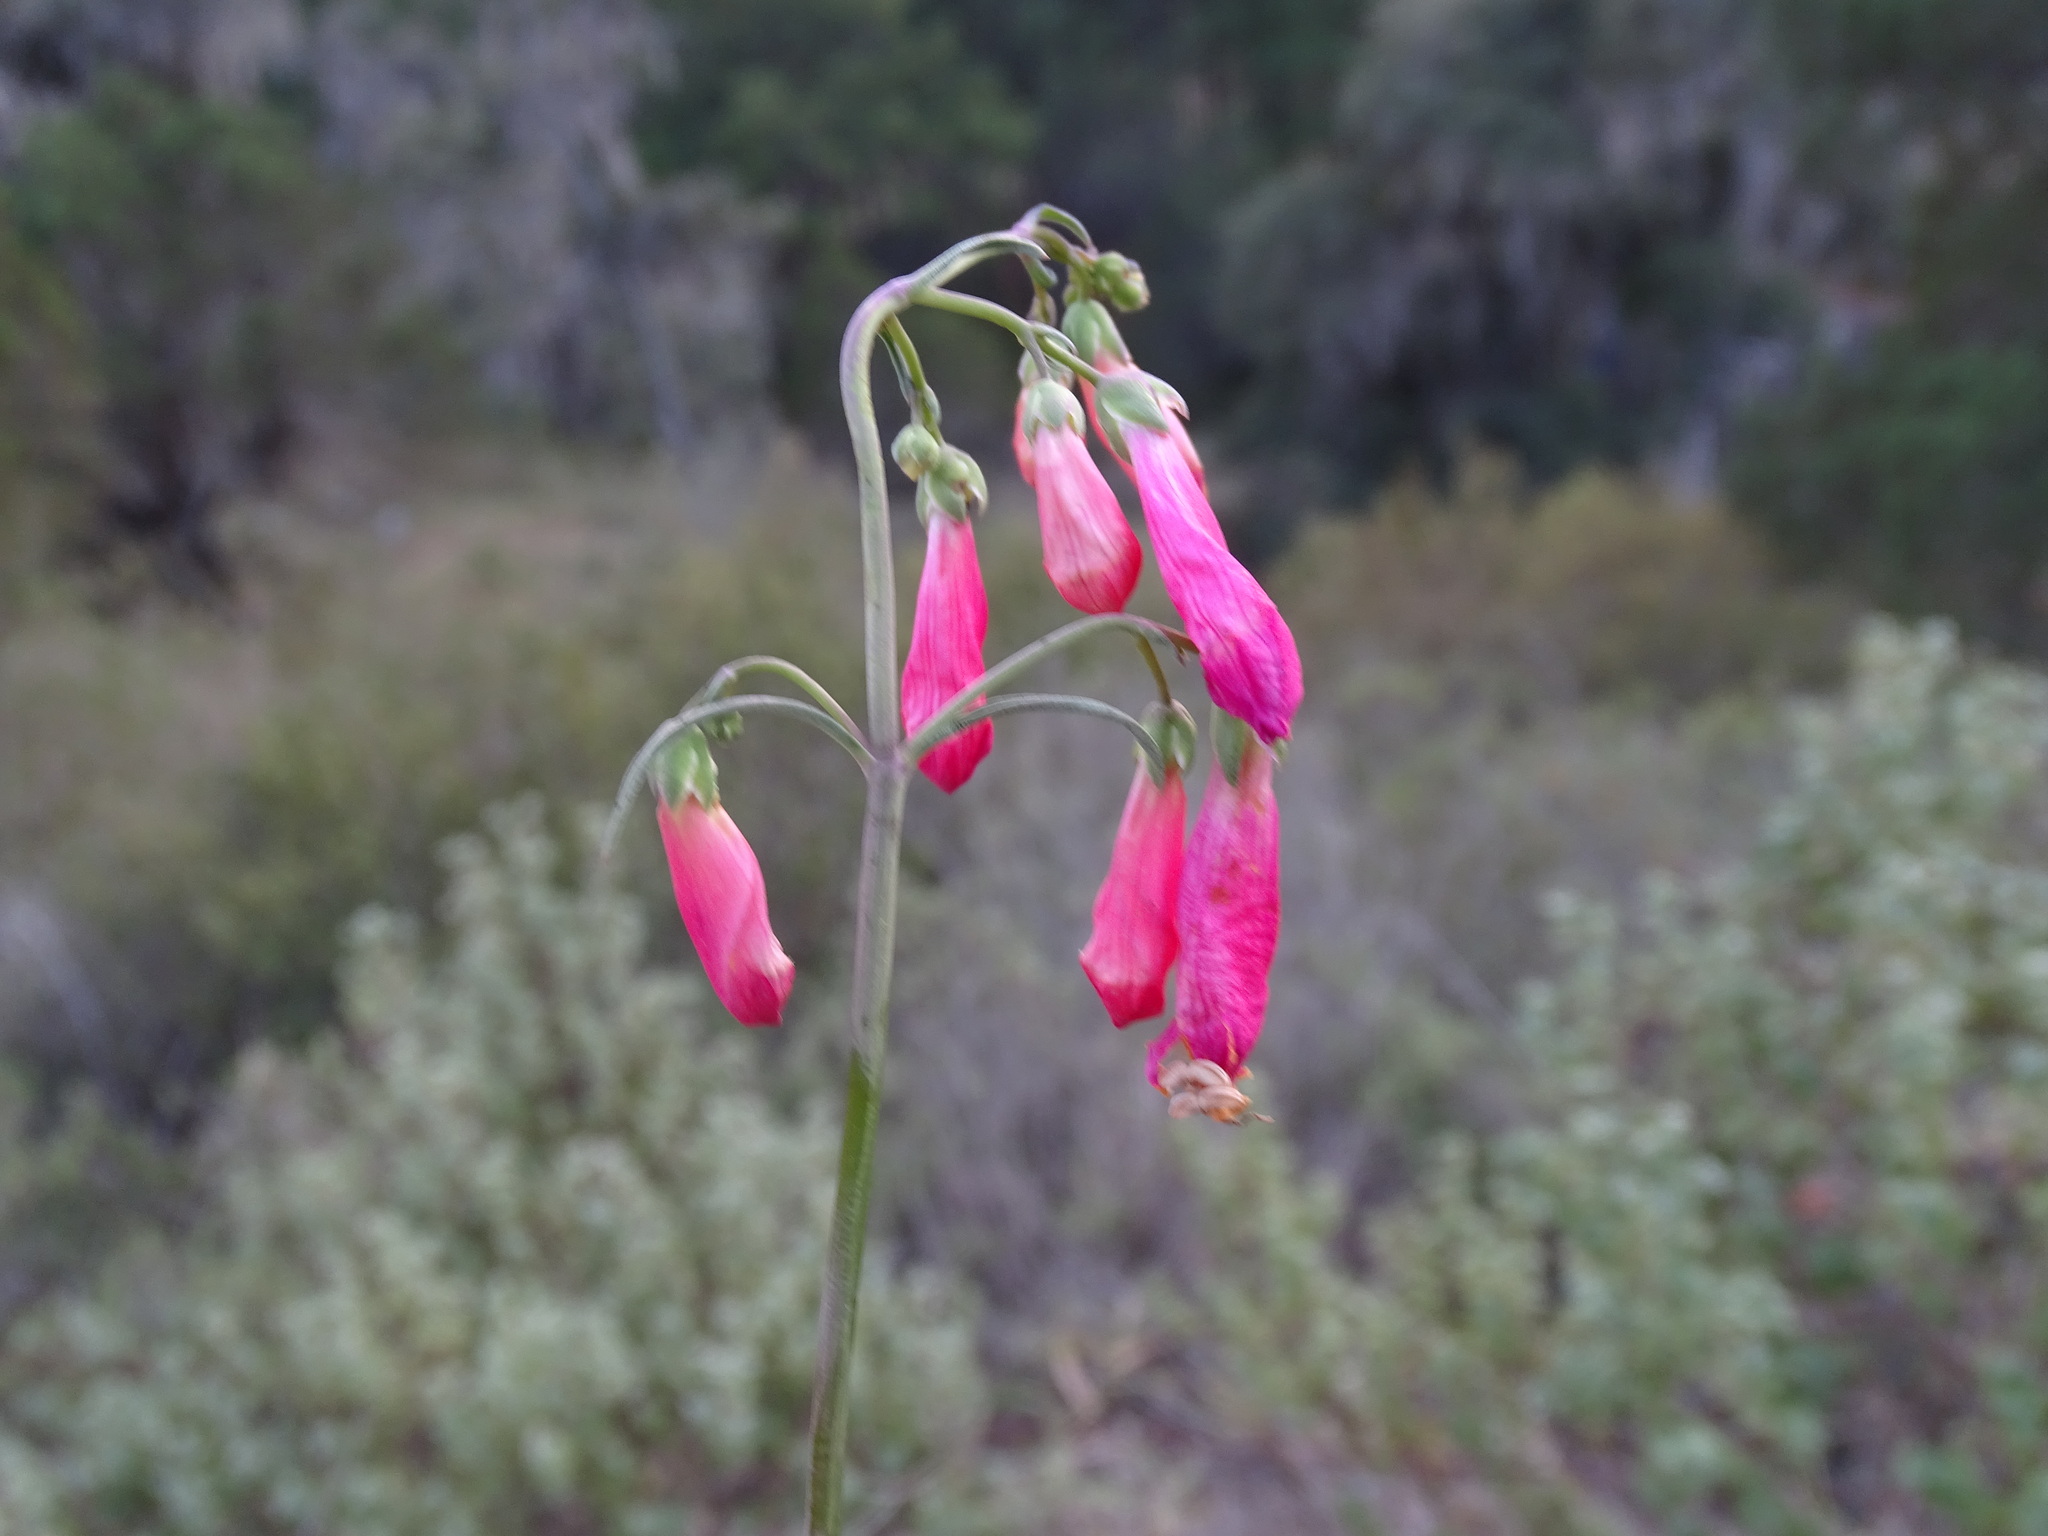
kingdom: Plantae
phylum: Tracheophyta
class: Magnoliopsida
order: Lamiales
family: Plantaginaceae
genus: Penstemon
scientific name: Penstemon barbatus
